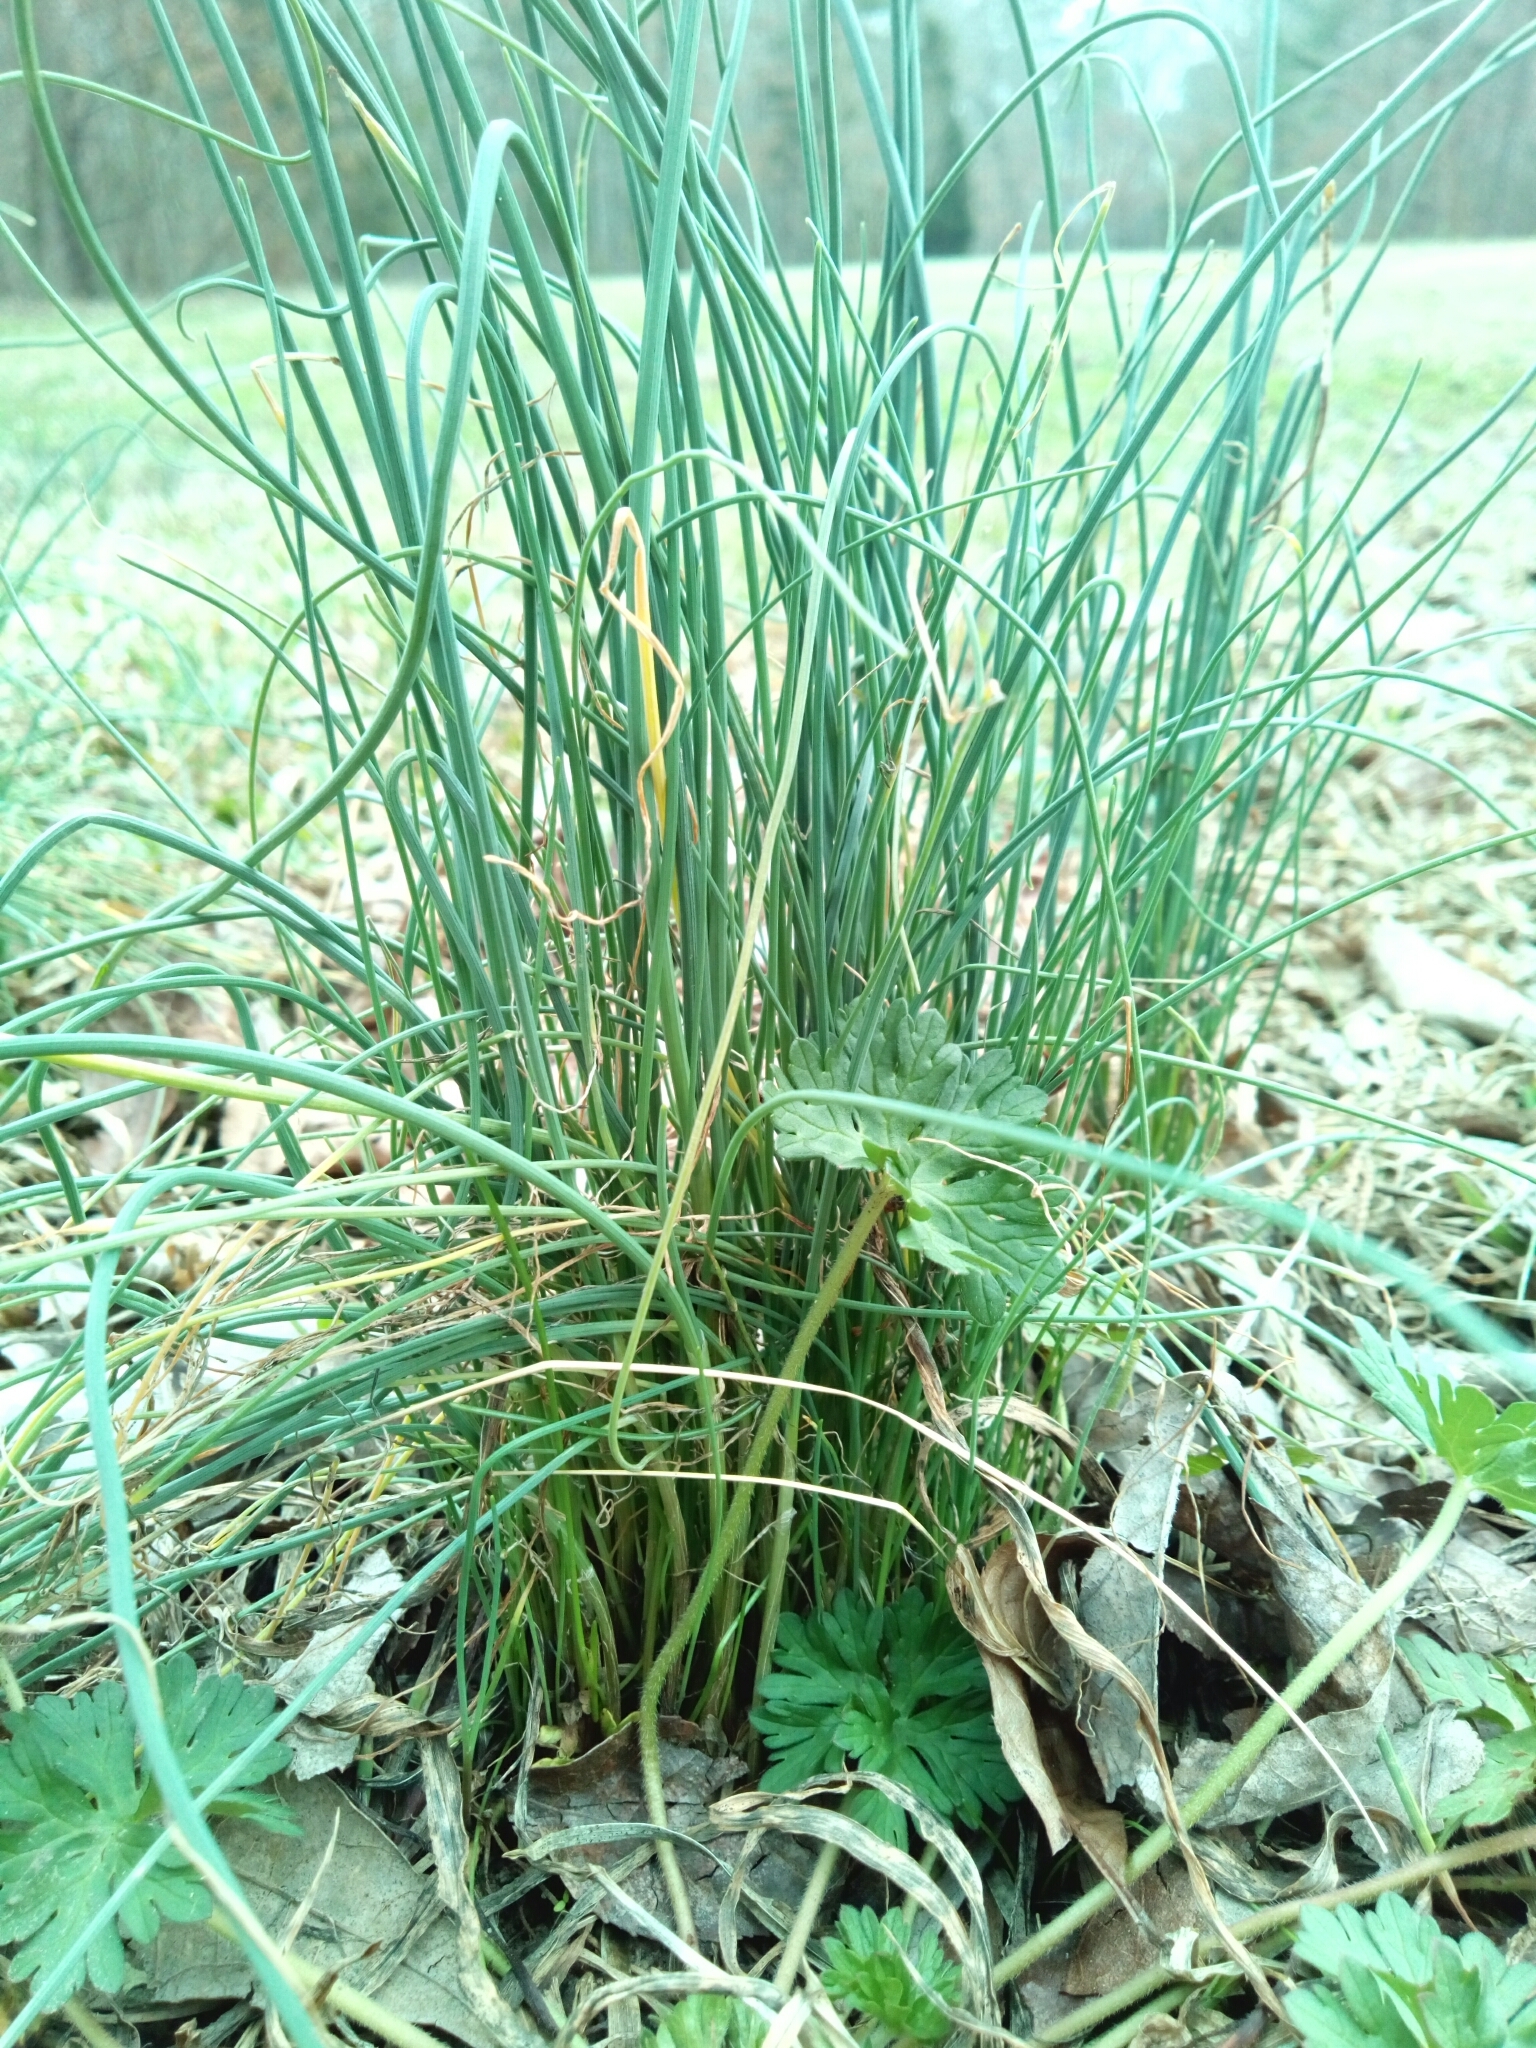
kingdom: Plantae
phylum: Tracheophyta
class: Liliopsida
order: Asparagales
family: Amaryllidaceae
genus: Allium
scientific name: Allium vineale
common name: Crow garlic
